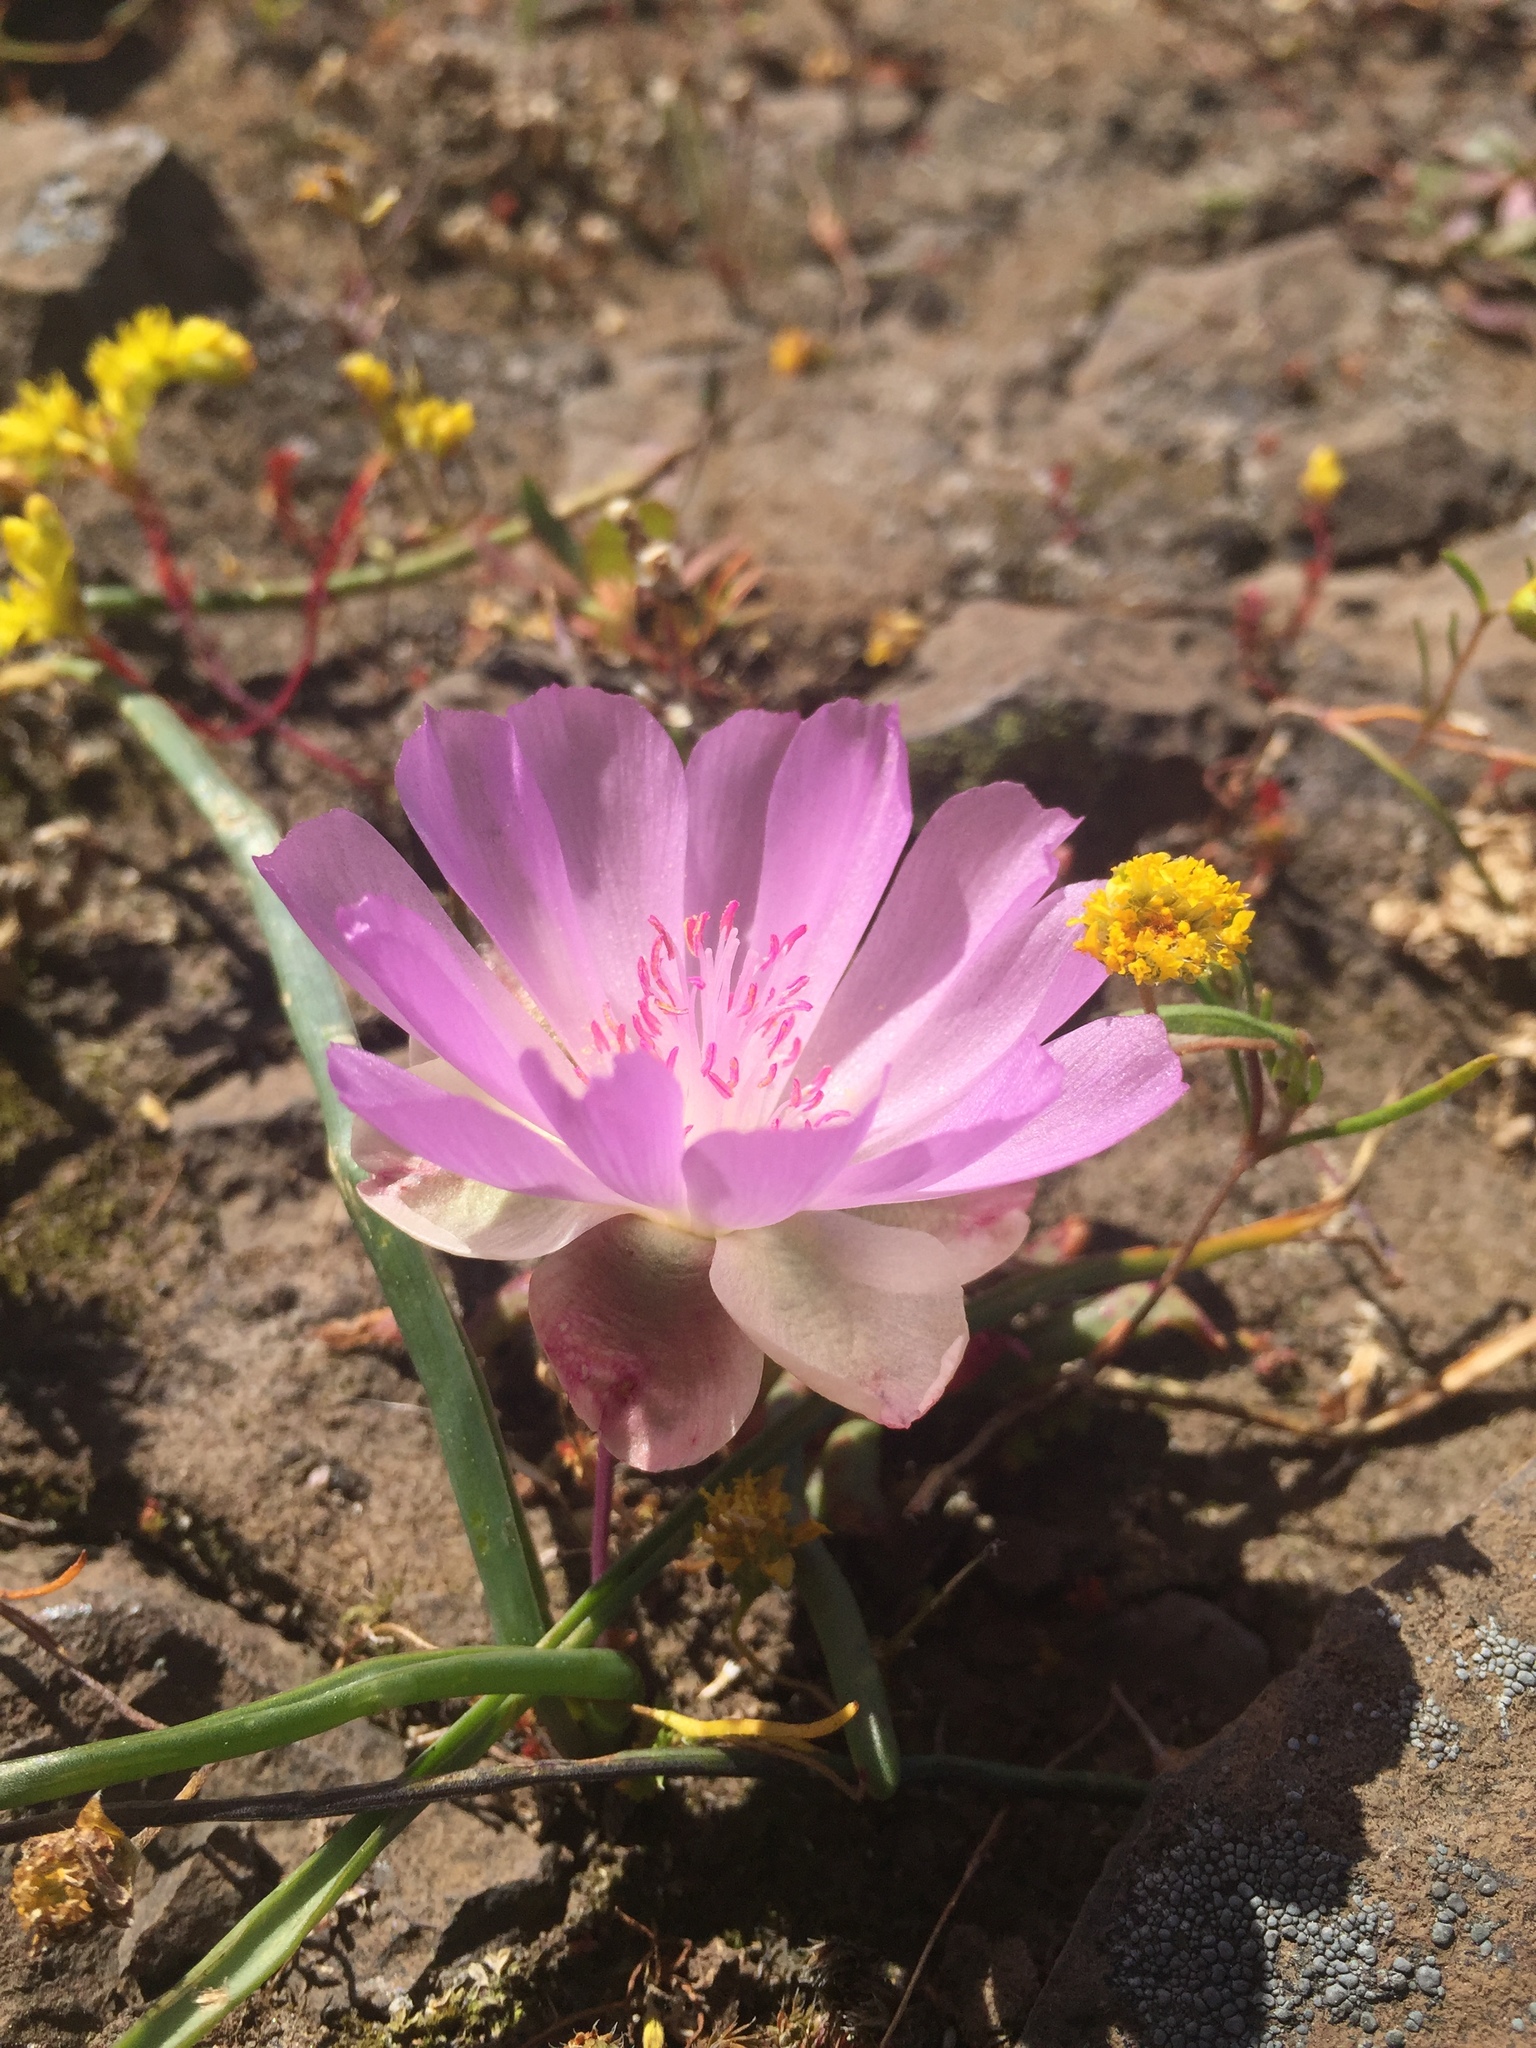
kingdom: Plantae
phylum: Tracheophyta
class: Magnoliopsida
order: Caryophyllales
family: Montiaceae
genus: Lewisia
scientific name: Lewisia rediviva
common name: Bitter-root
